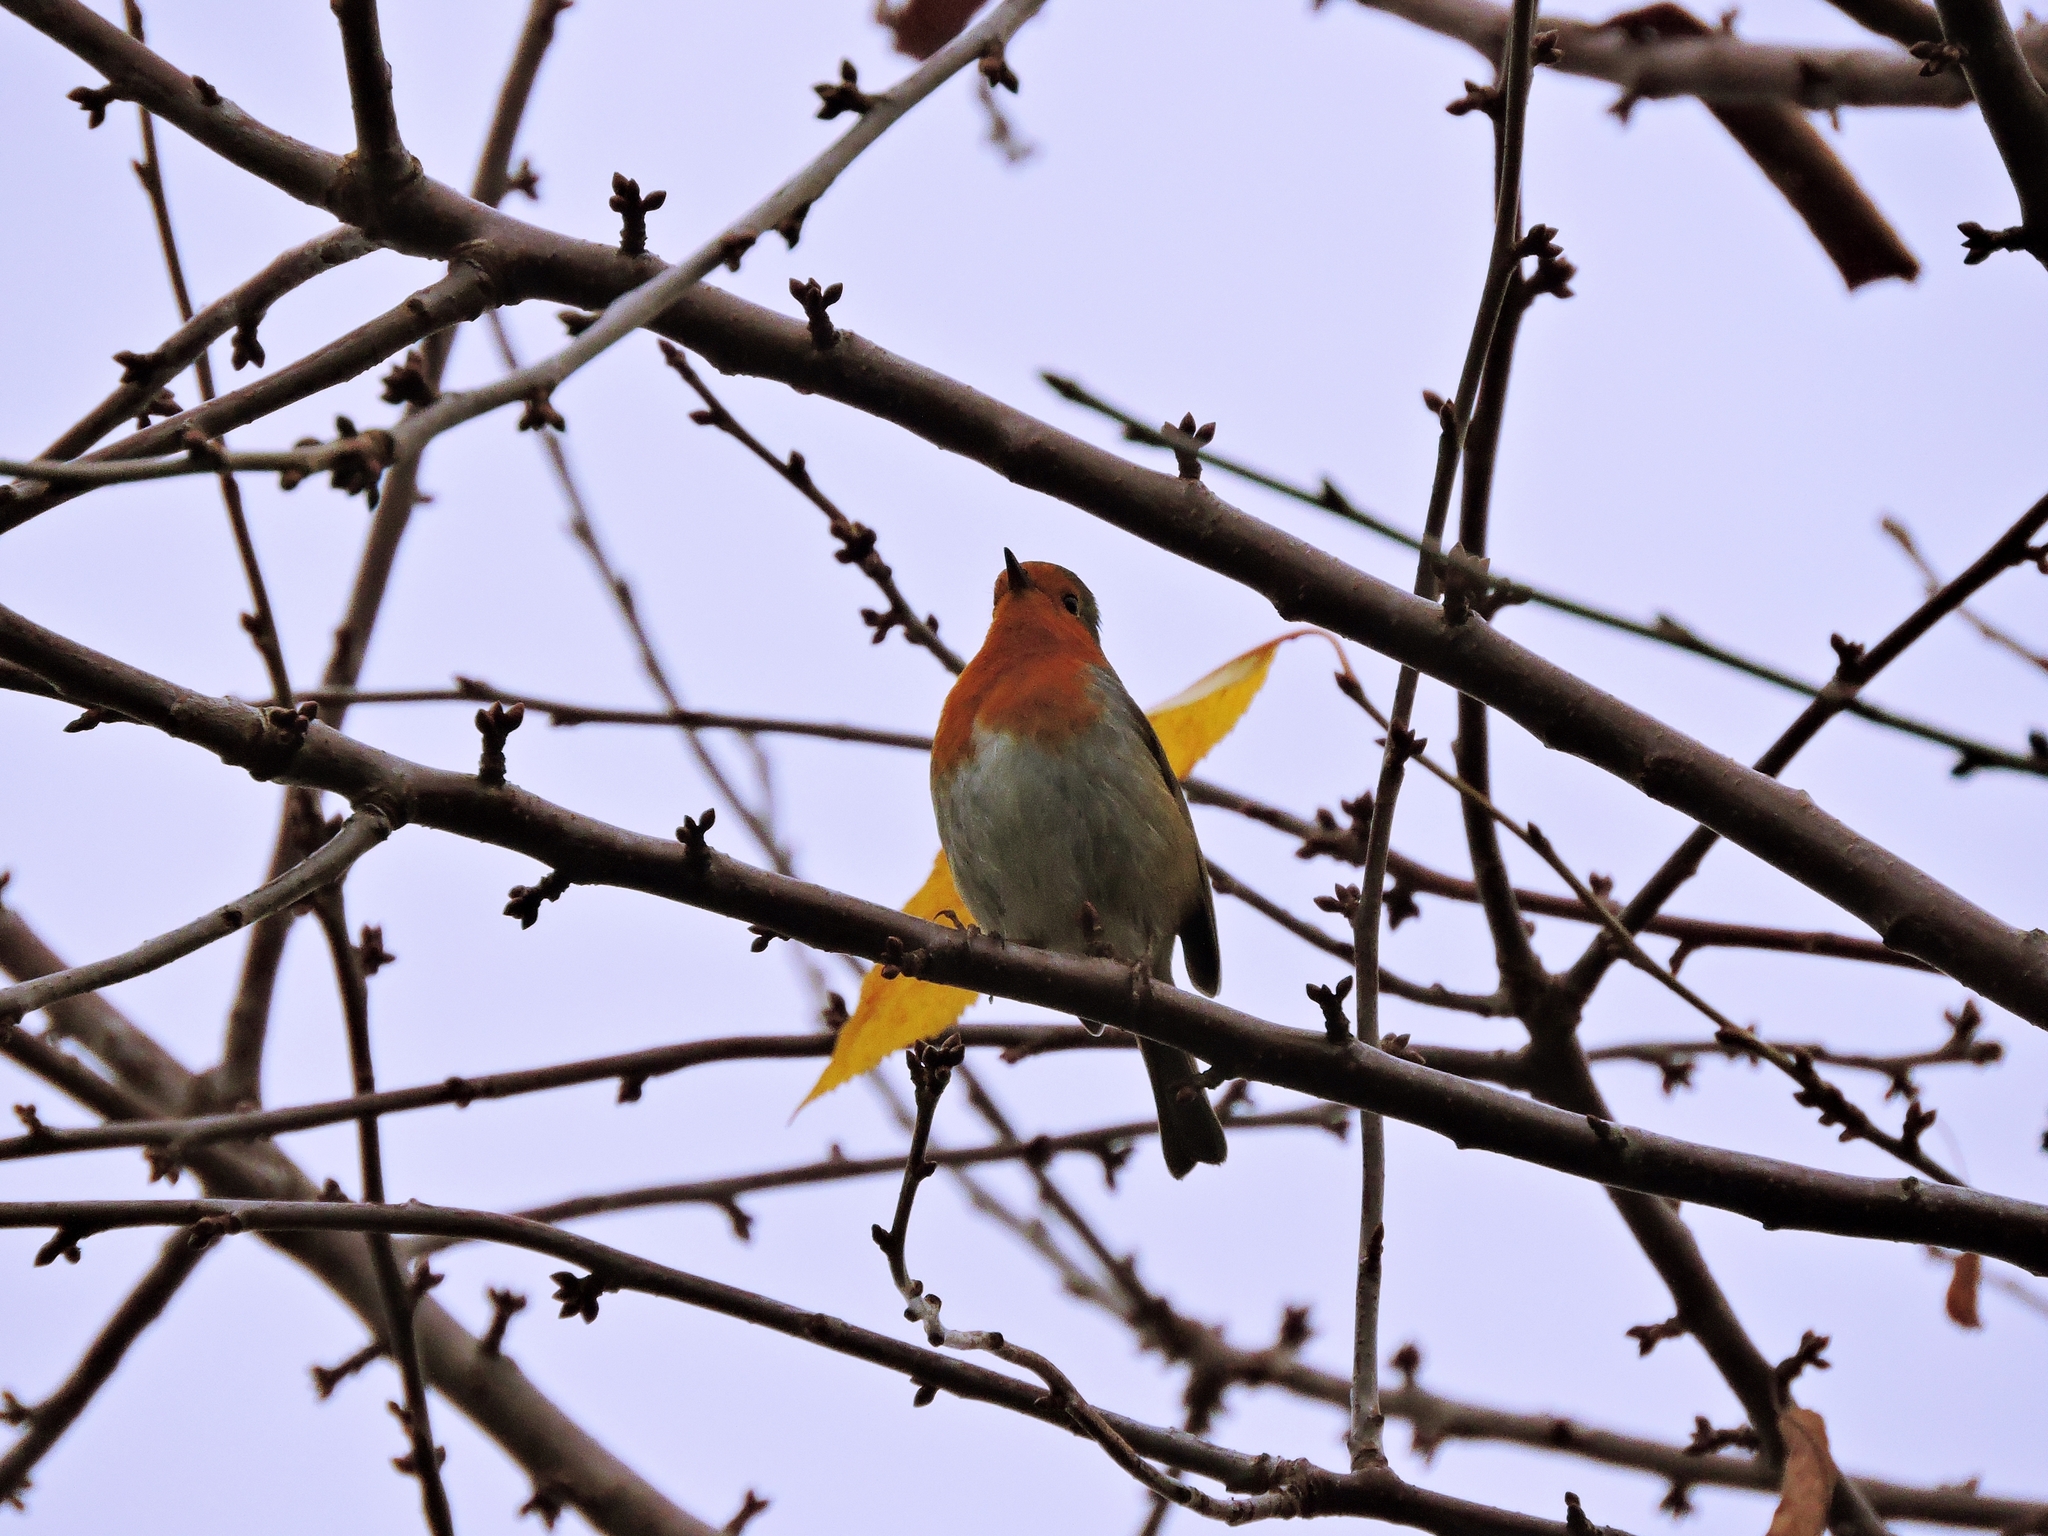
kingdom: Animalia
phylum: Chordata
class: Aves
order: Passeriformes
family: Muscicapidae
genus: Erithacus
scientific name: Erithacus rubecula
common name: European robin
